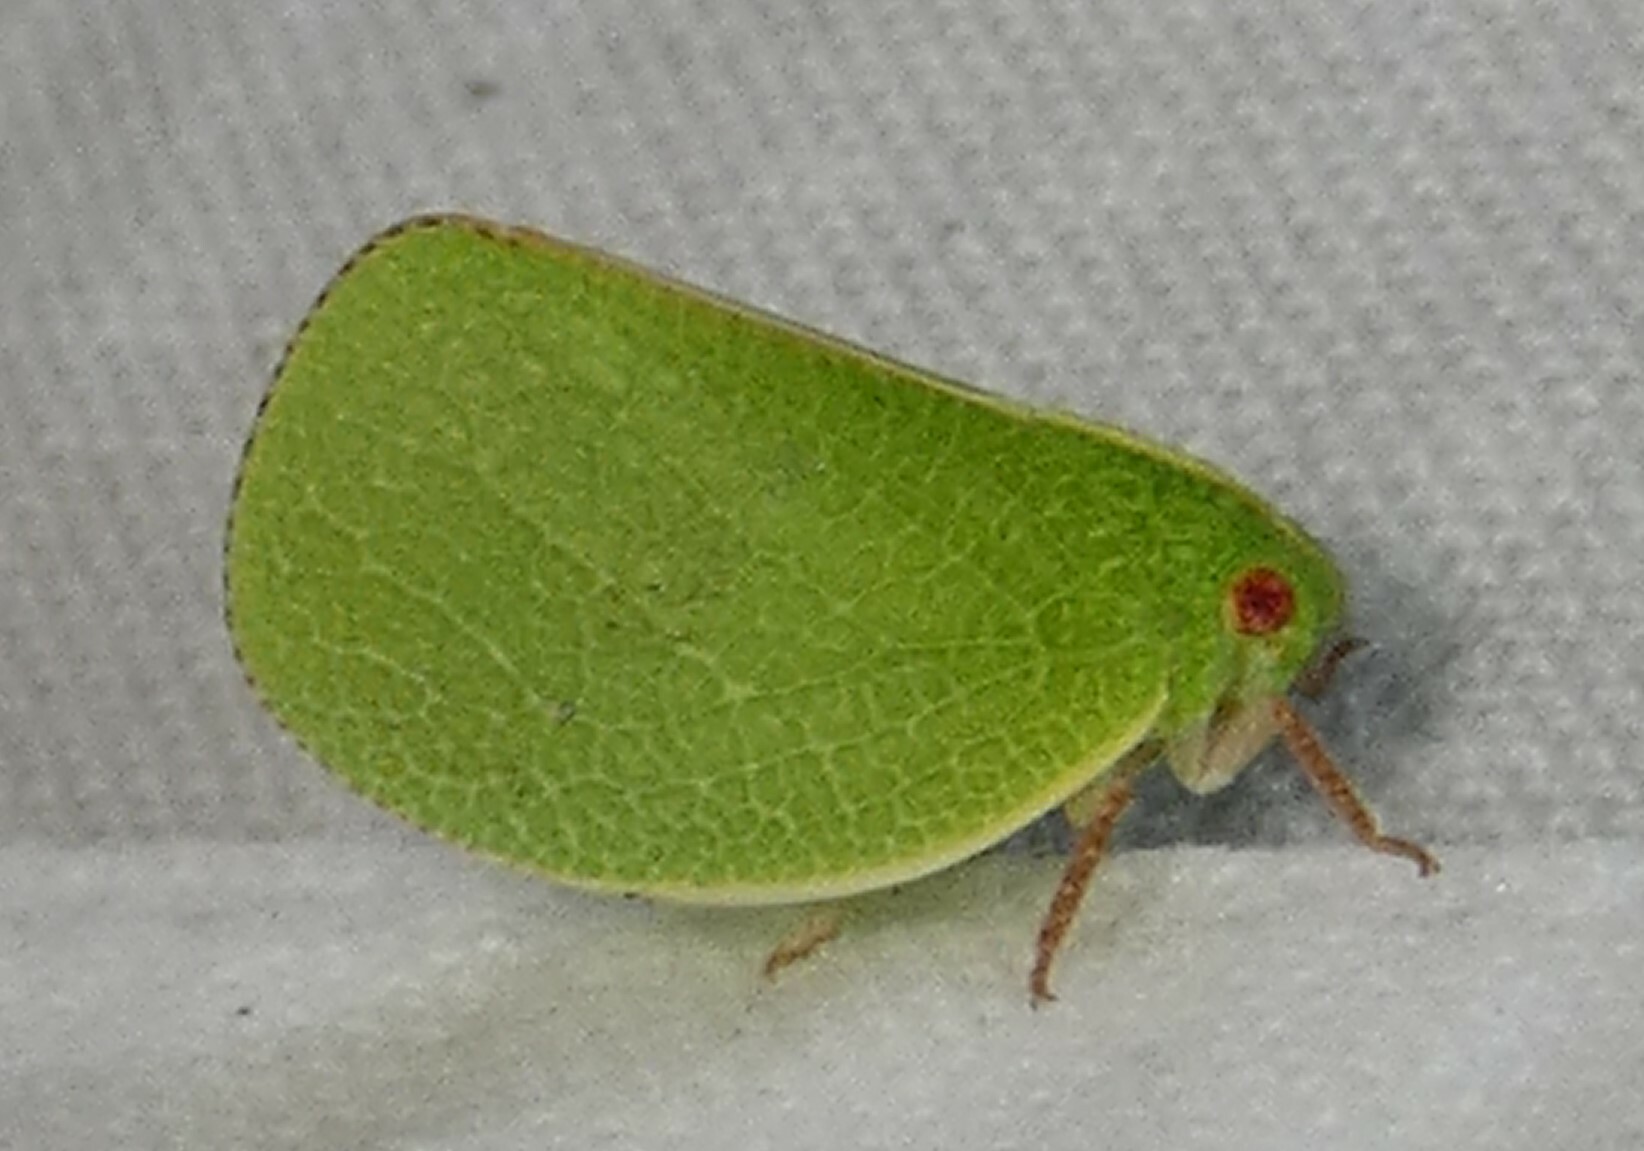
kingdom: Animalia
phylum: Arthropoda
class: Insecta
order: Hemiptera
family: Acanaloniidae
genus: Acanalonia
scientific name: Acanalonia servillei
